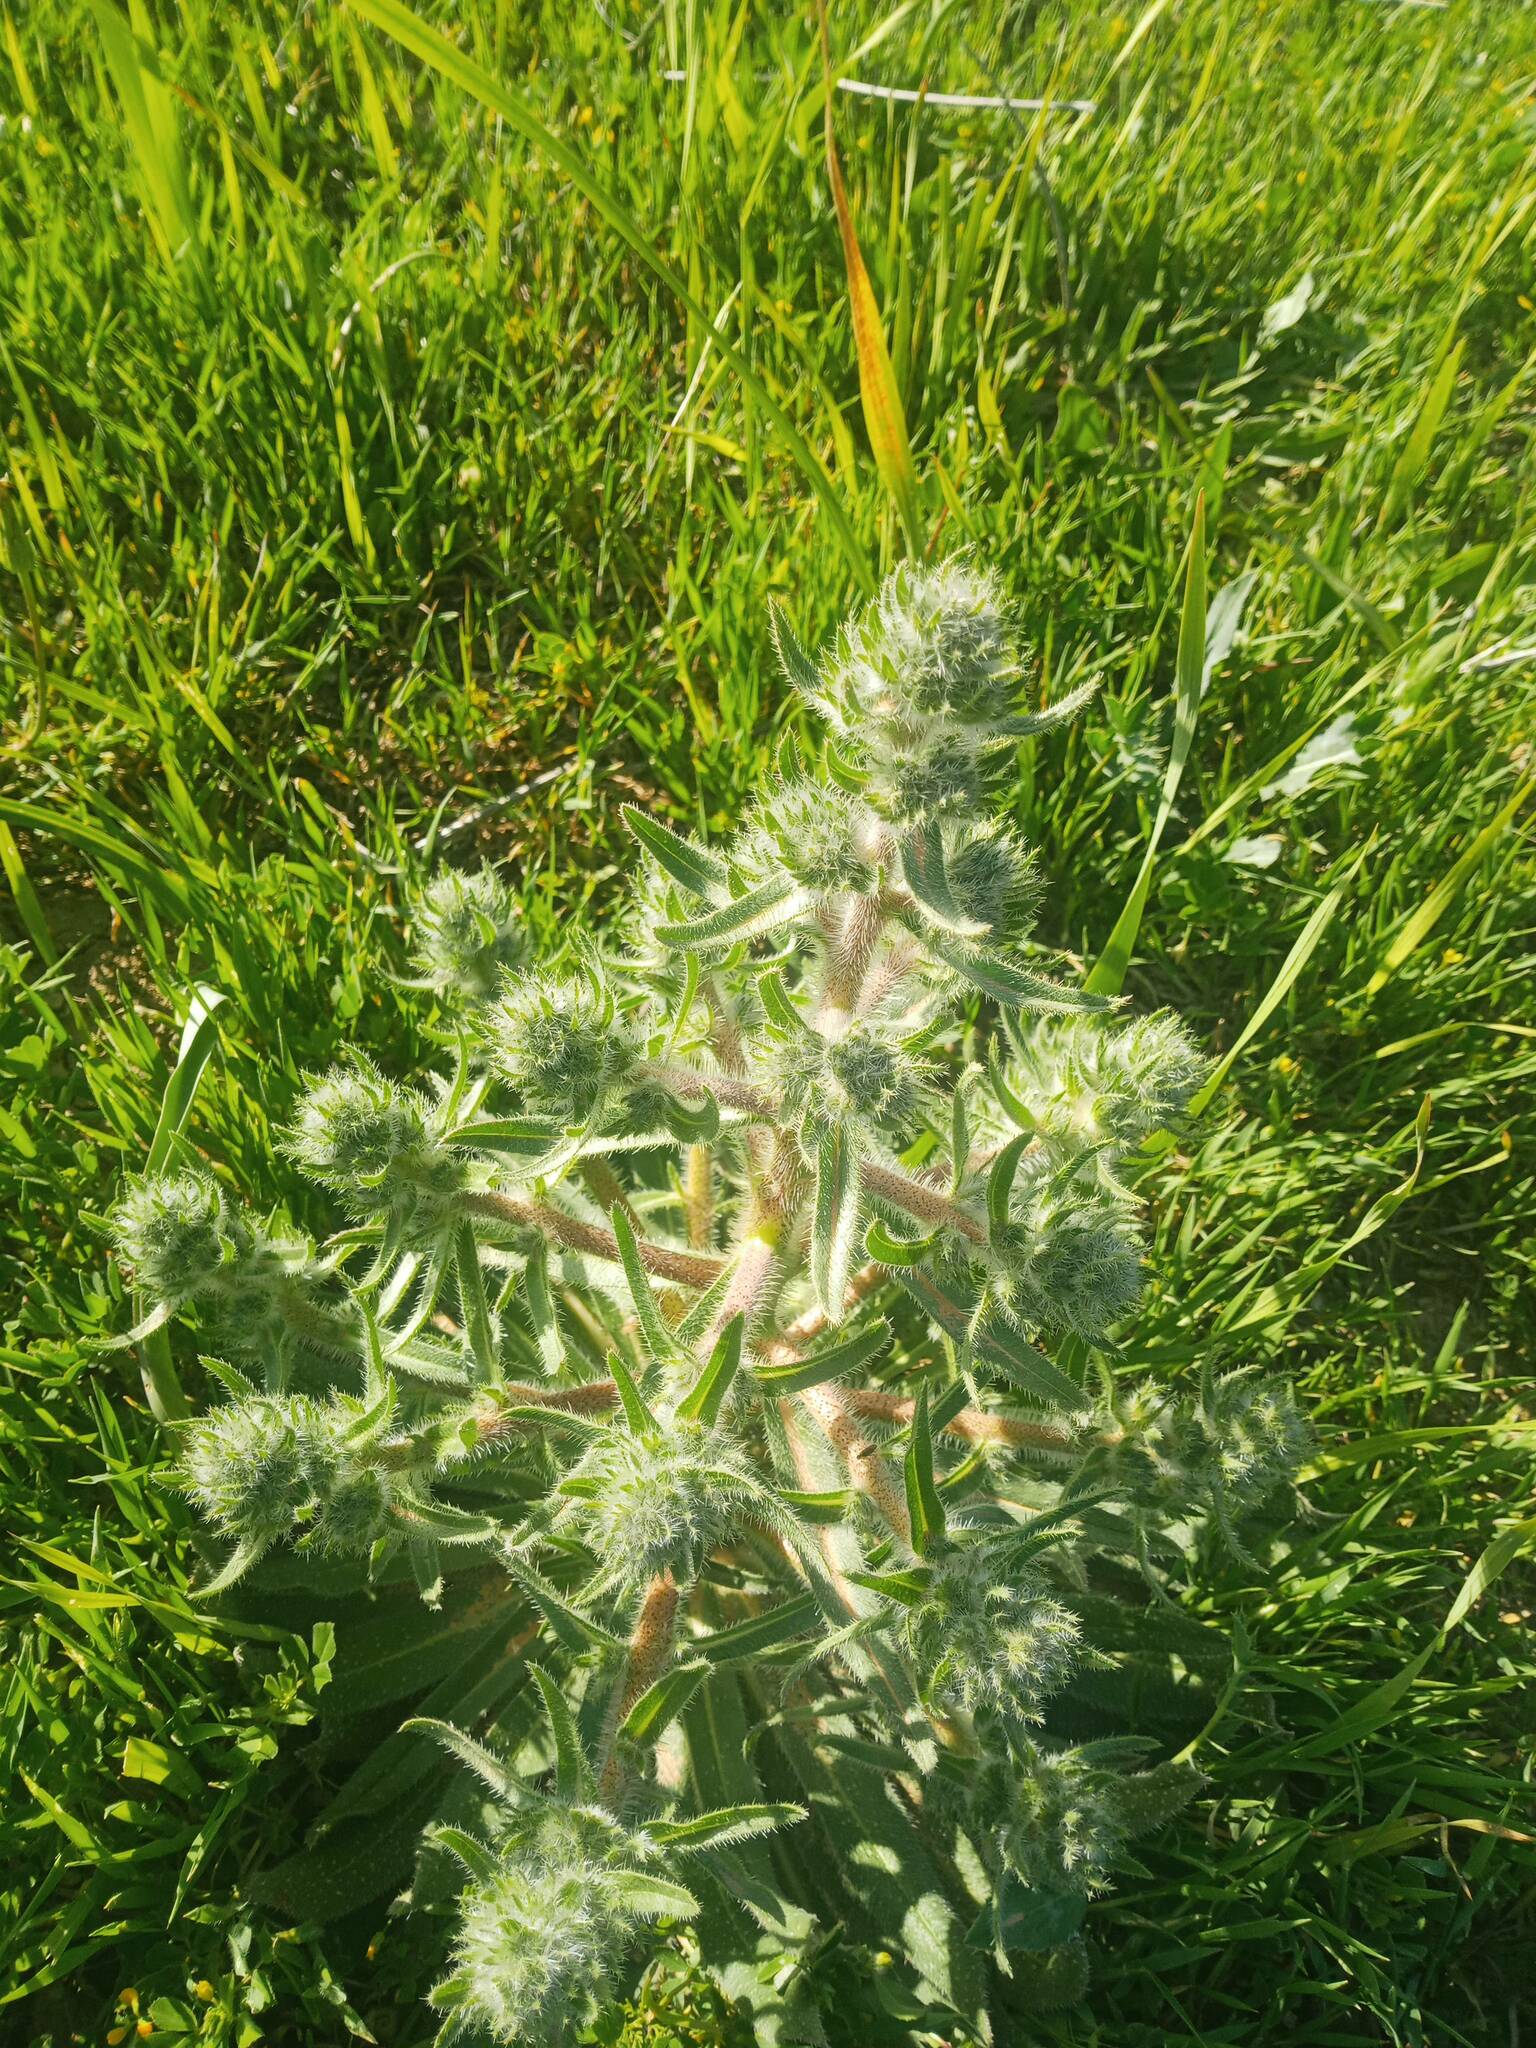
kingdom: Plantae
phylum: Tracheophyta
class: Magnoliopsida
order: Boraginales
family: Boraginaceae
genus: Echium
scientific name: Echium asperrimum
